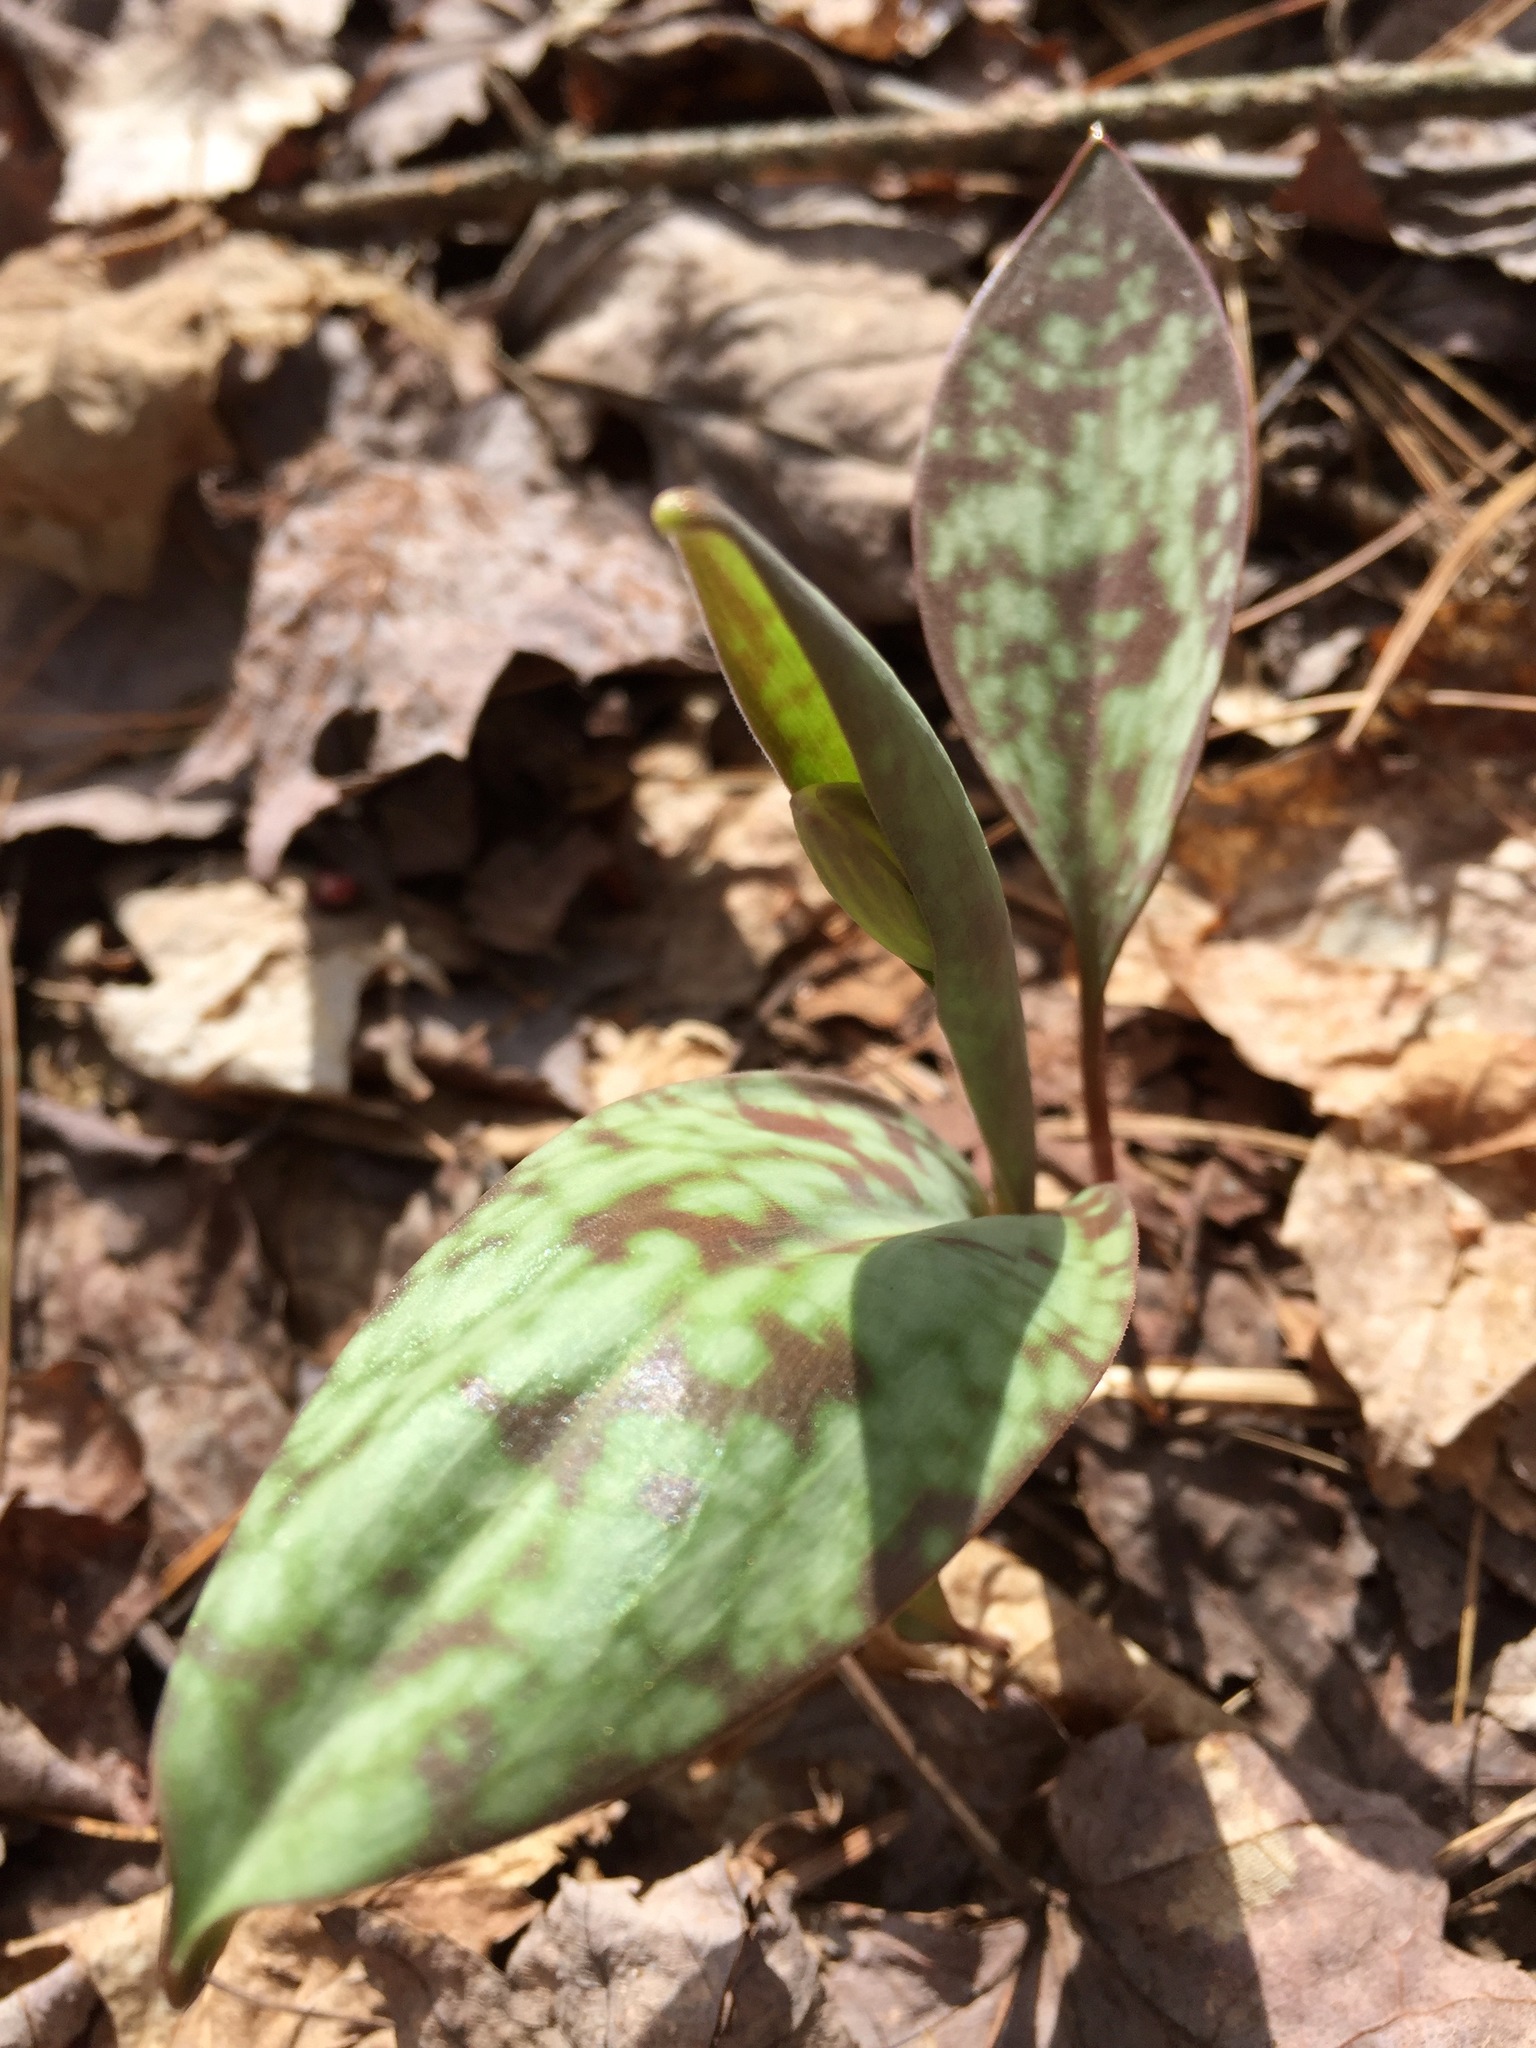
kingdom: Plantae
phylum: Tracheophyta
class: Liliopsida
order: Liliales
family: Liliaceae
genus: Erythronium
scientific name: Erythronium americanum
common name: Yellow adder's-tongue
